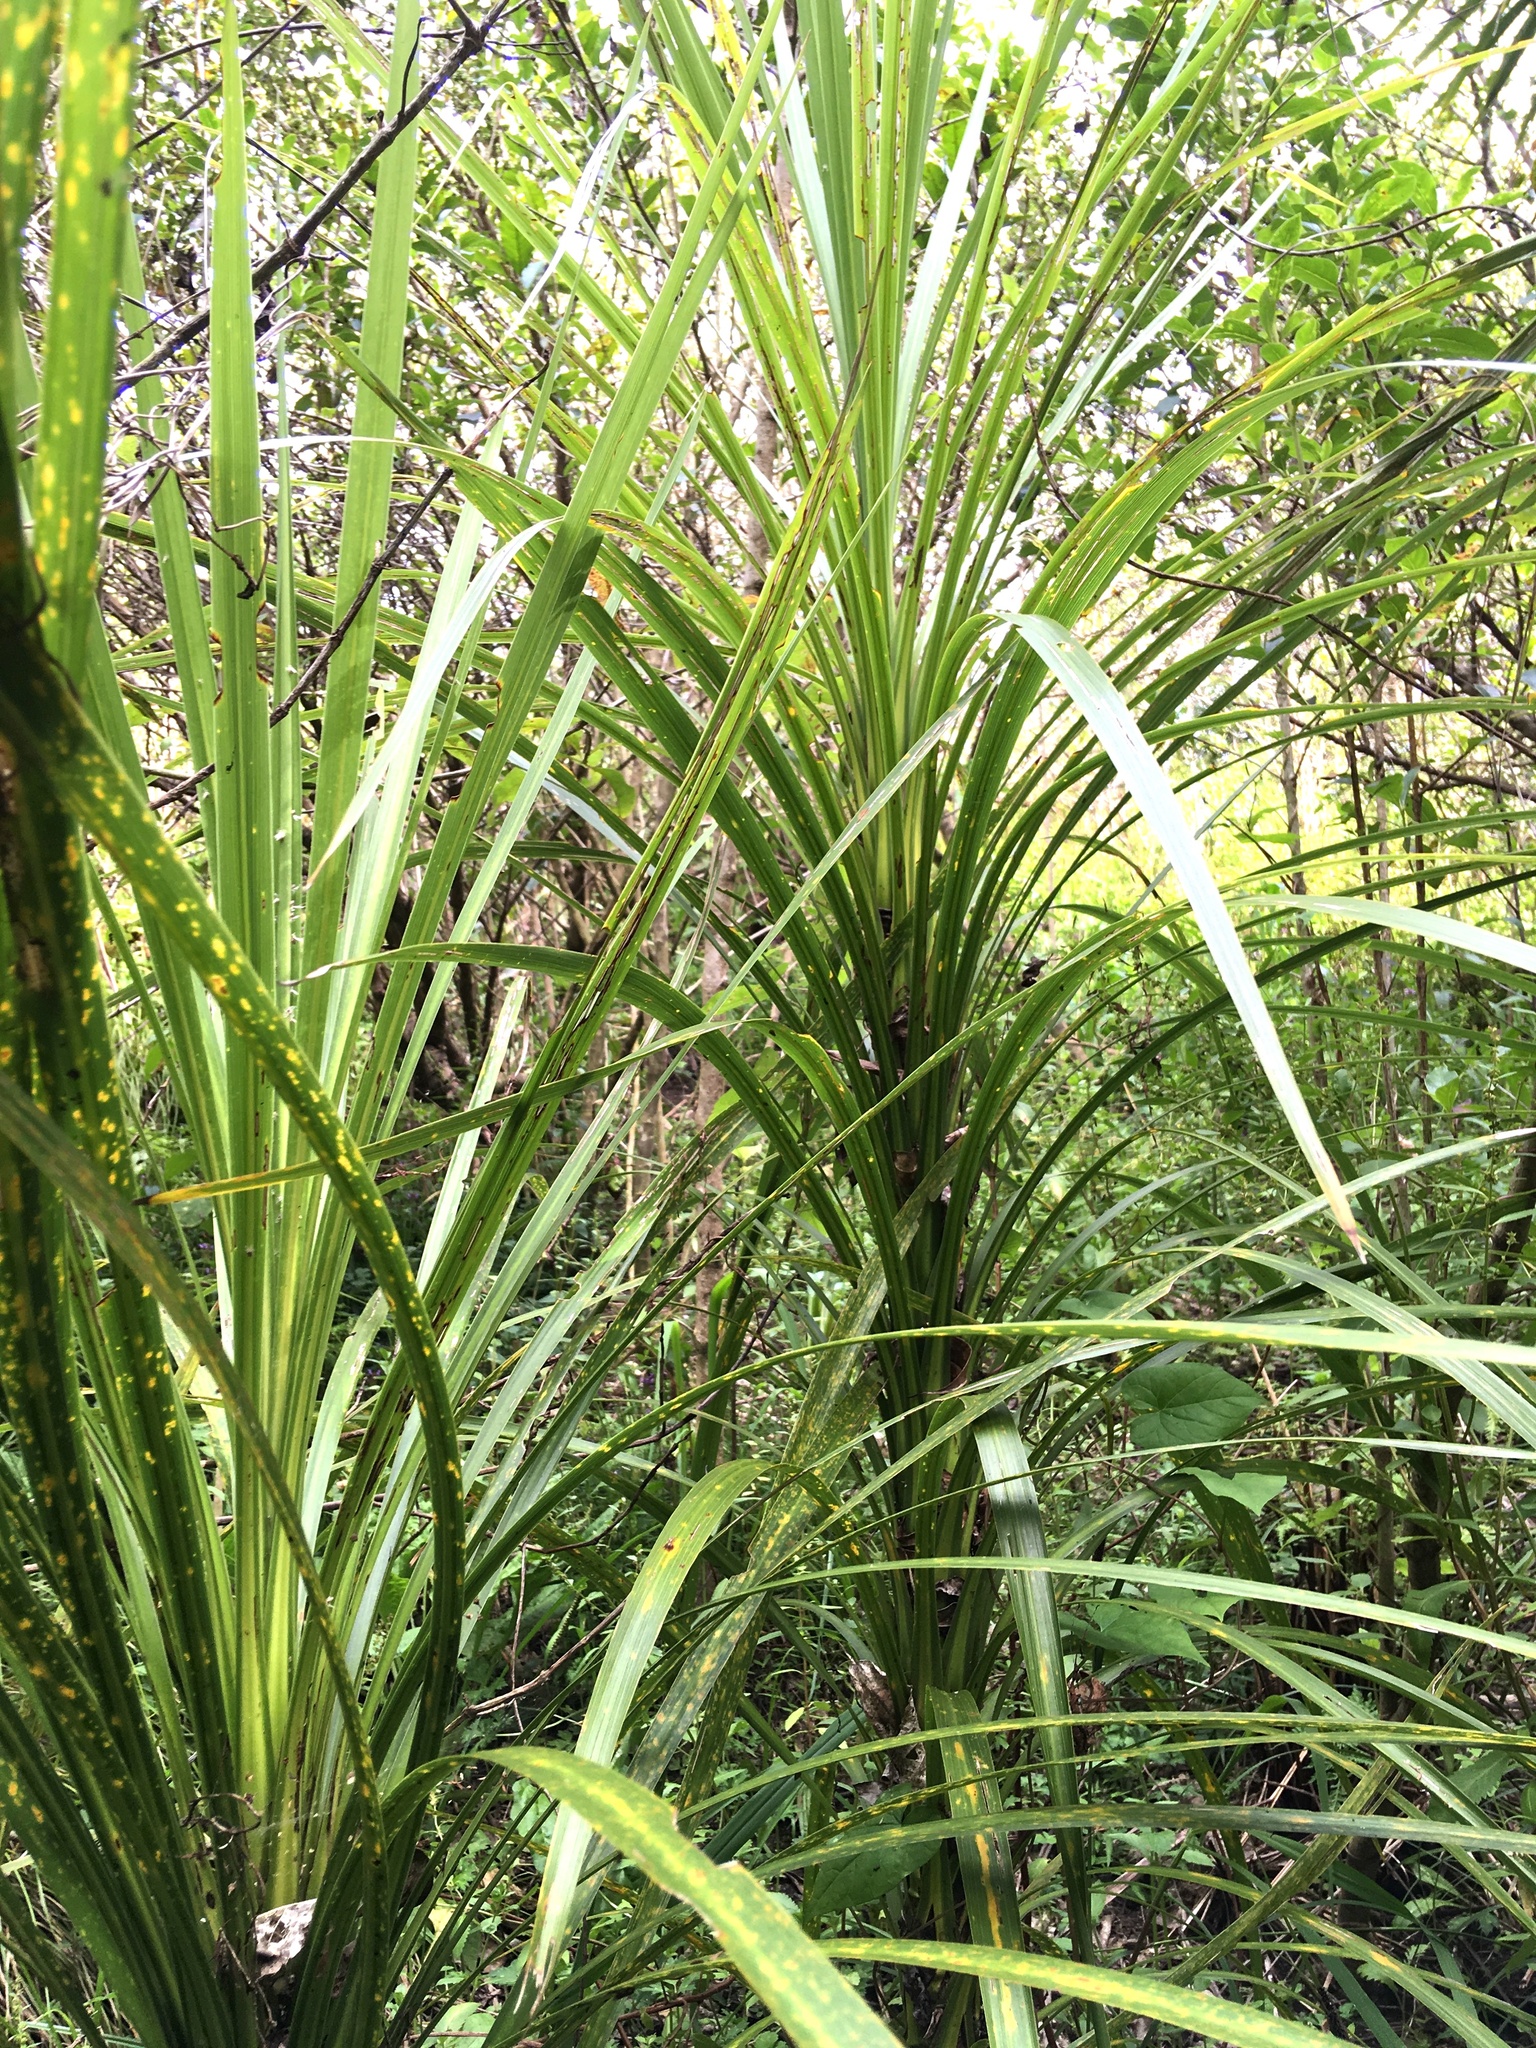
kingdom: Plantae
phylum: Tracheophyta
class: Liliopsida
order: Asparagales
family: Asparagaceae
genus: Cordyline
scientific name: Cordyline australis
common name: Cabbage-palm
